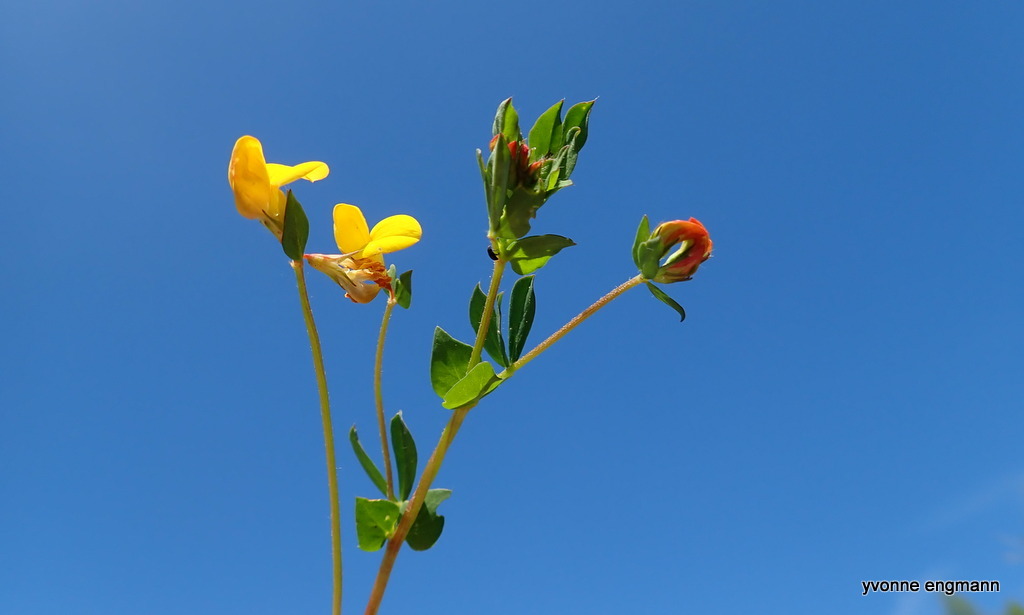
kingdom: Plantae
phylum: Tracheophyta
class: Magnoliopsida
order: Fabales
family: Fabaceae
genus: Lotus
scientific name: Lotus corniculatus
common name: Common bird's-foot-trefoil
